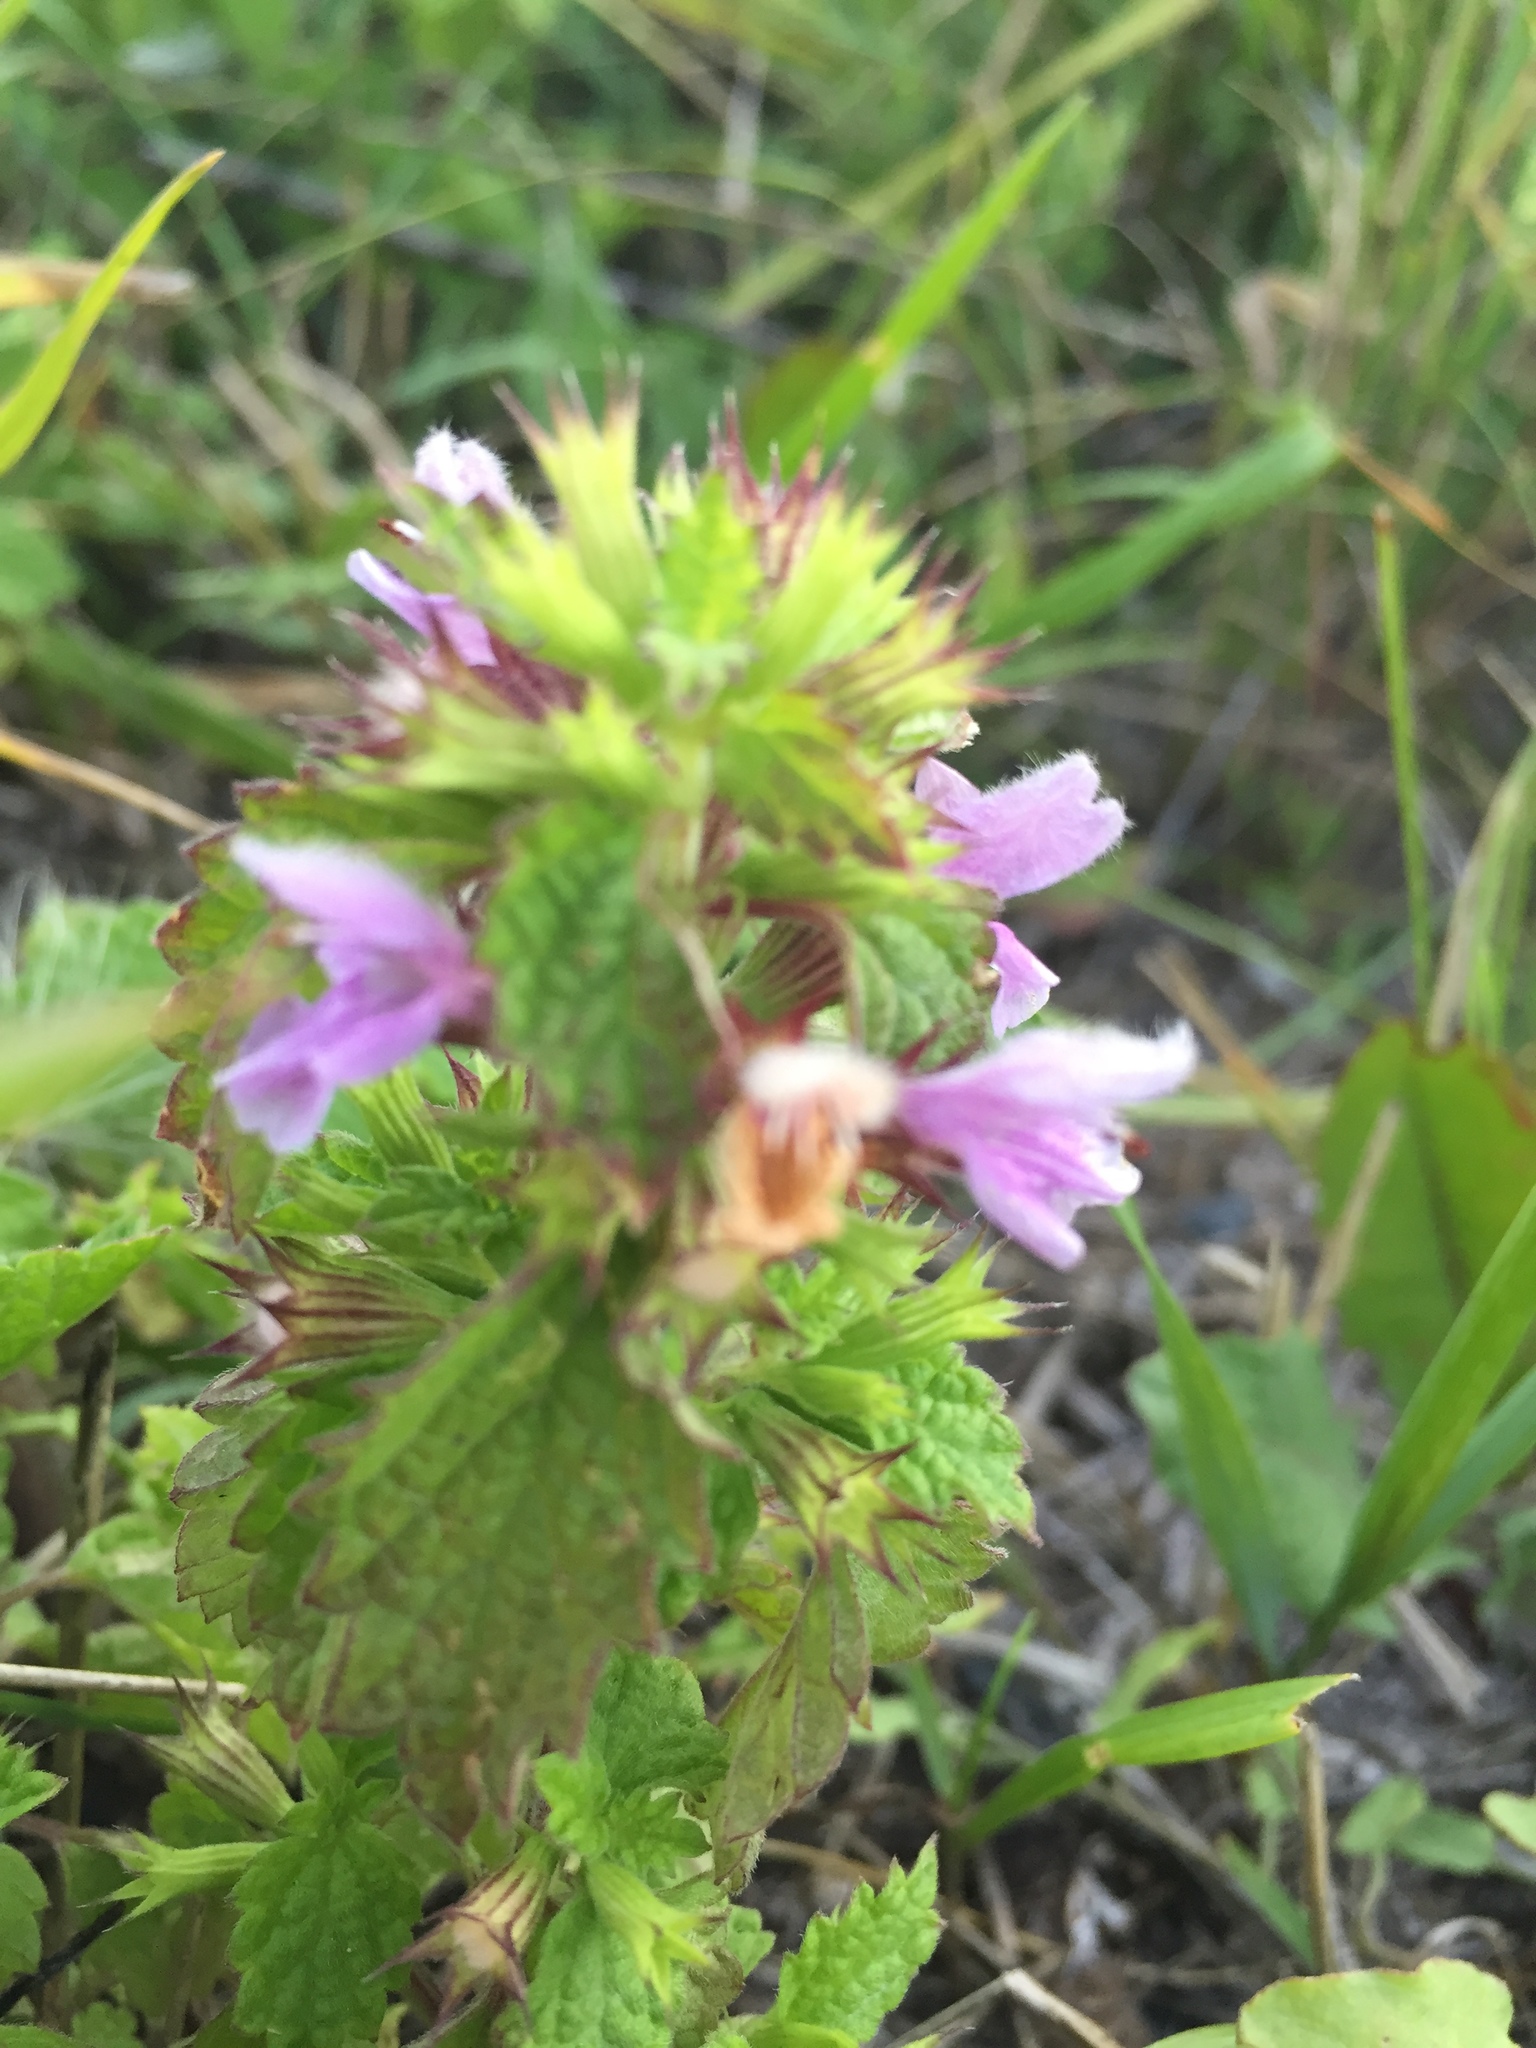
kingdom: Plantae
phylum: Tracheophyta
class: Magnoliopsida
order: Lamiales
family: Lamiaceae
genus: Ballota
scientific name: Ballota nigra
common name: Black horehound
